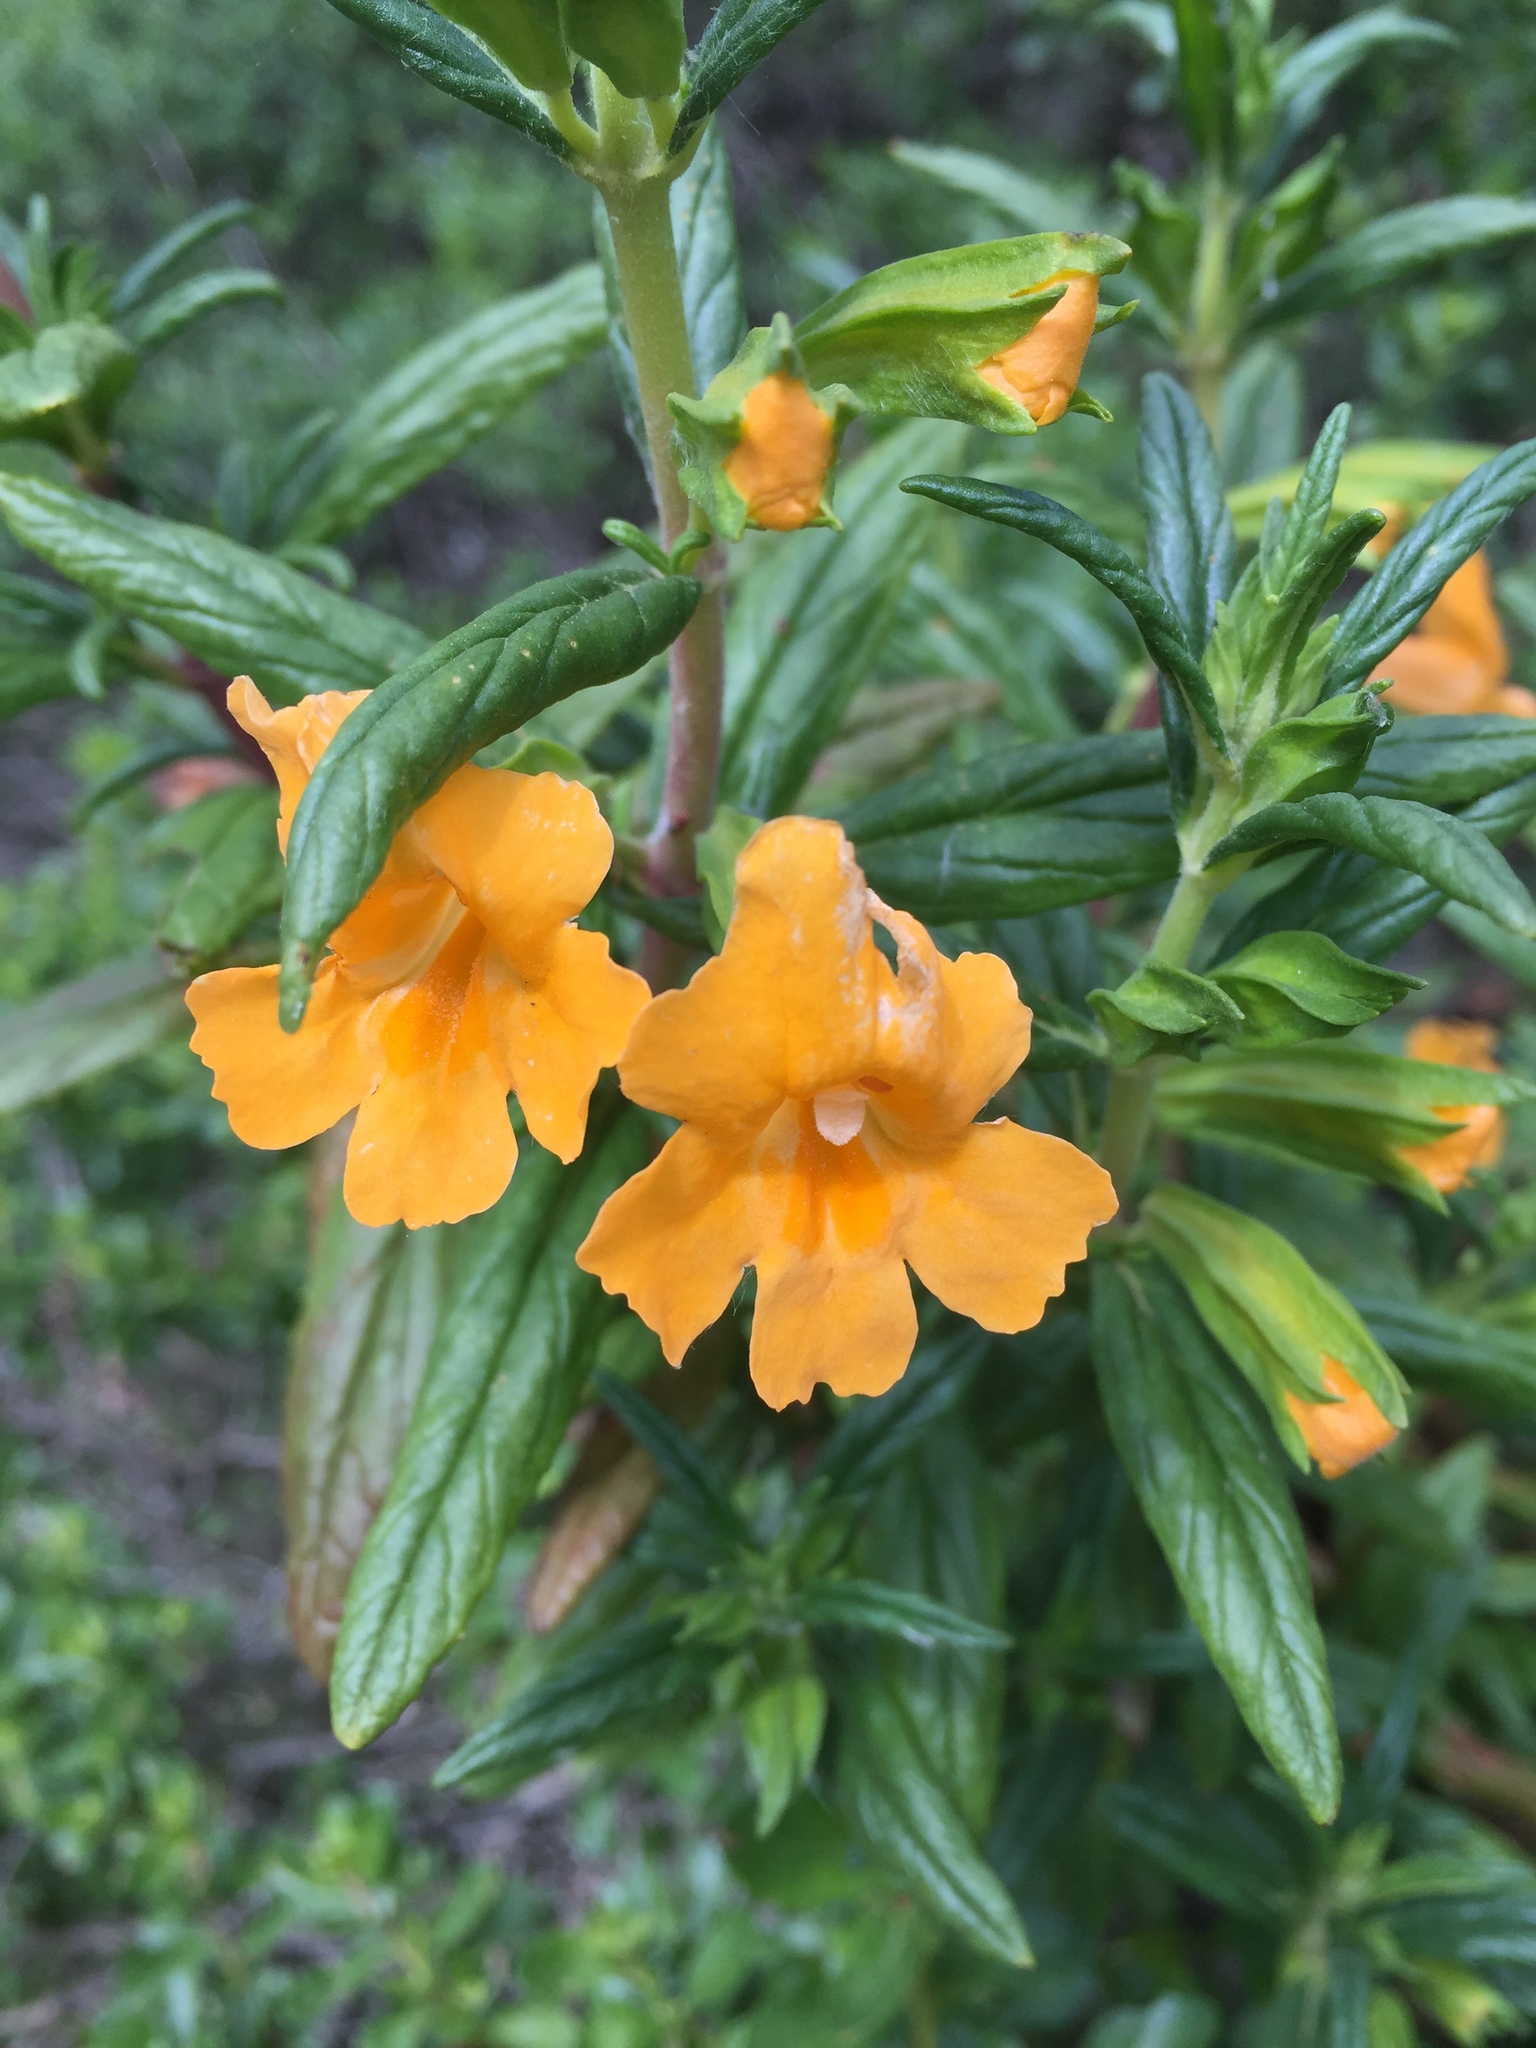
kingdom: Plantae
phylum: Tracheophyta
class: Magnoliopsida
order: Lamiales
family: Phrymaceae
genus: Diplacus
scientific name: Diplacus aurantiacus
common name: Bush monkey-flower
